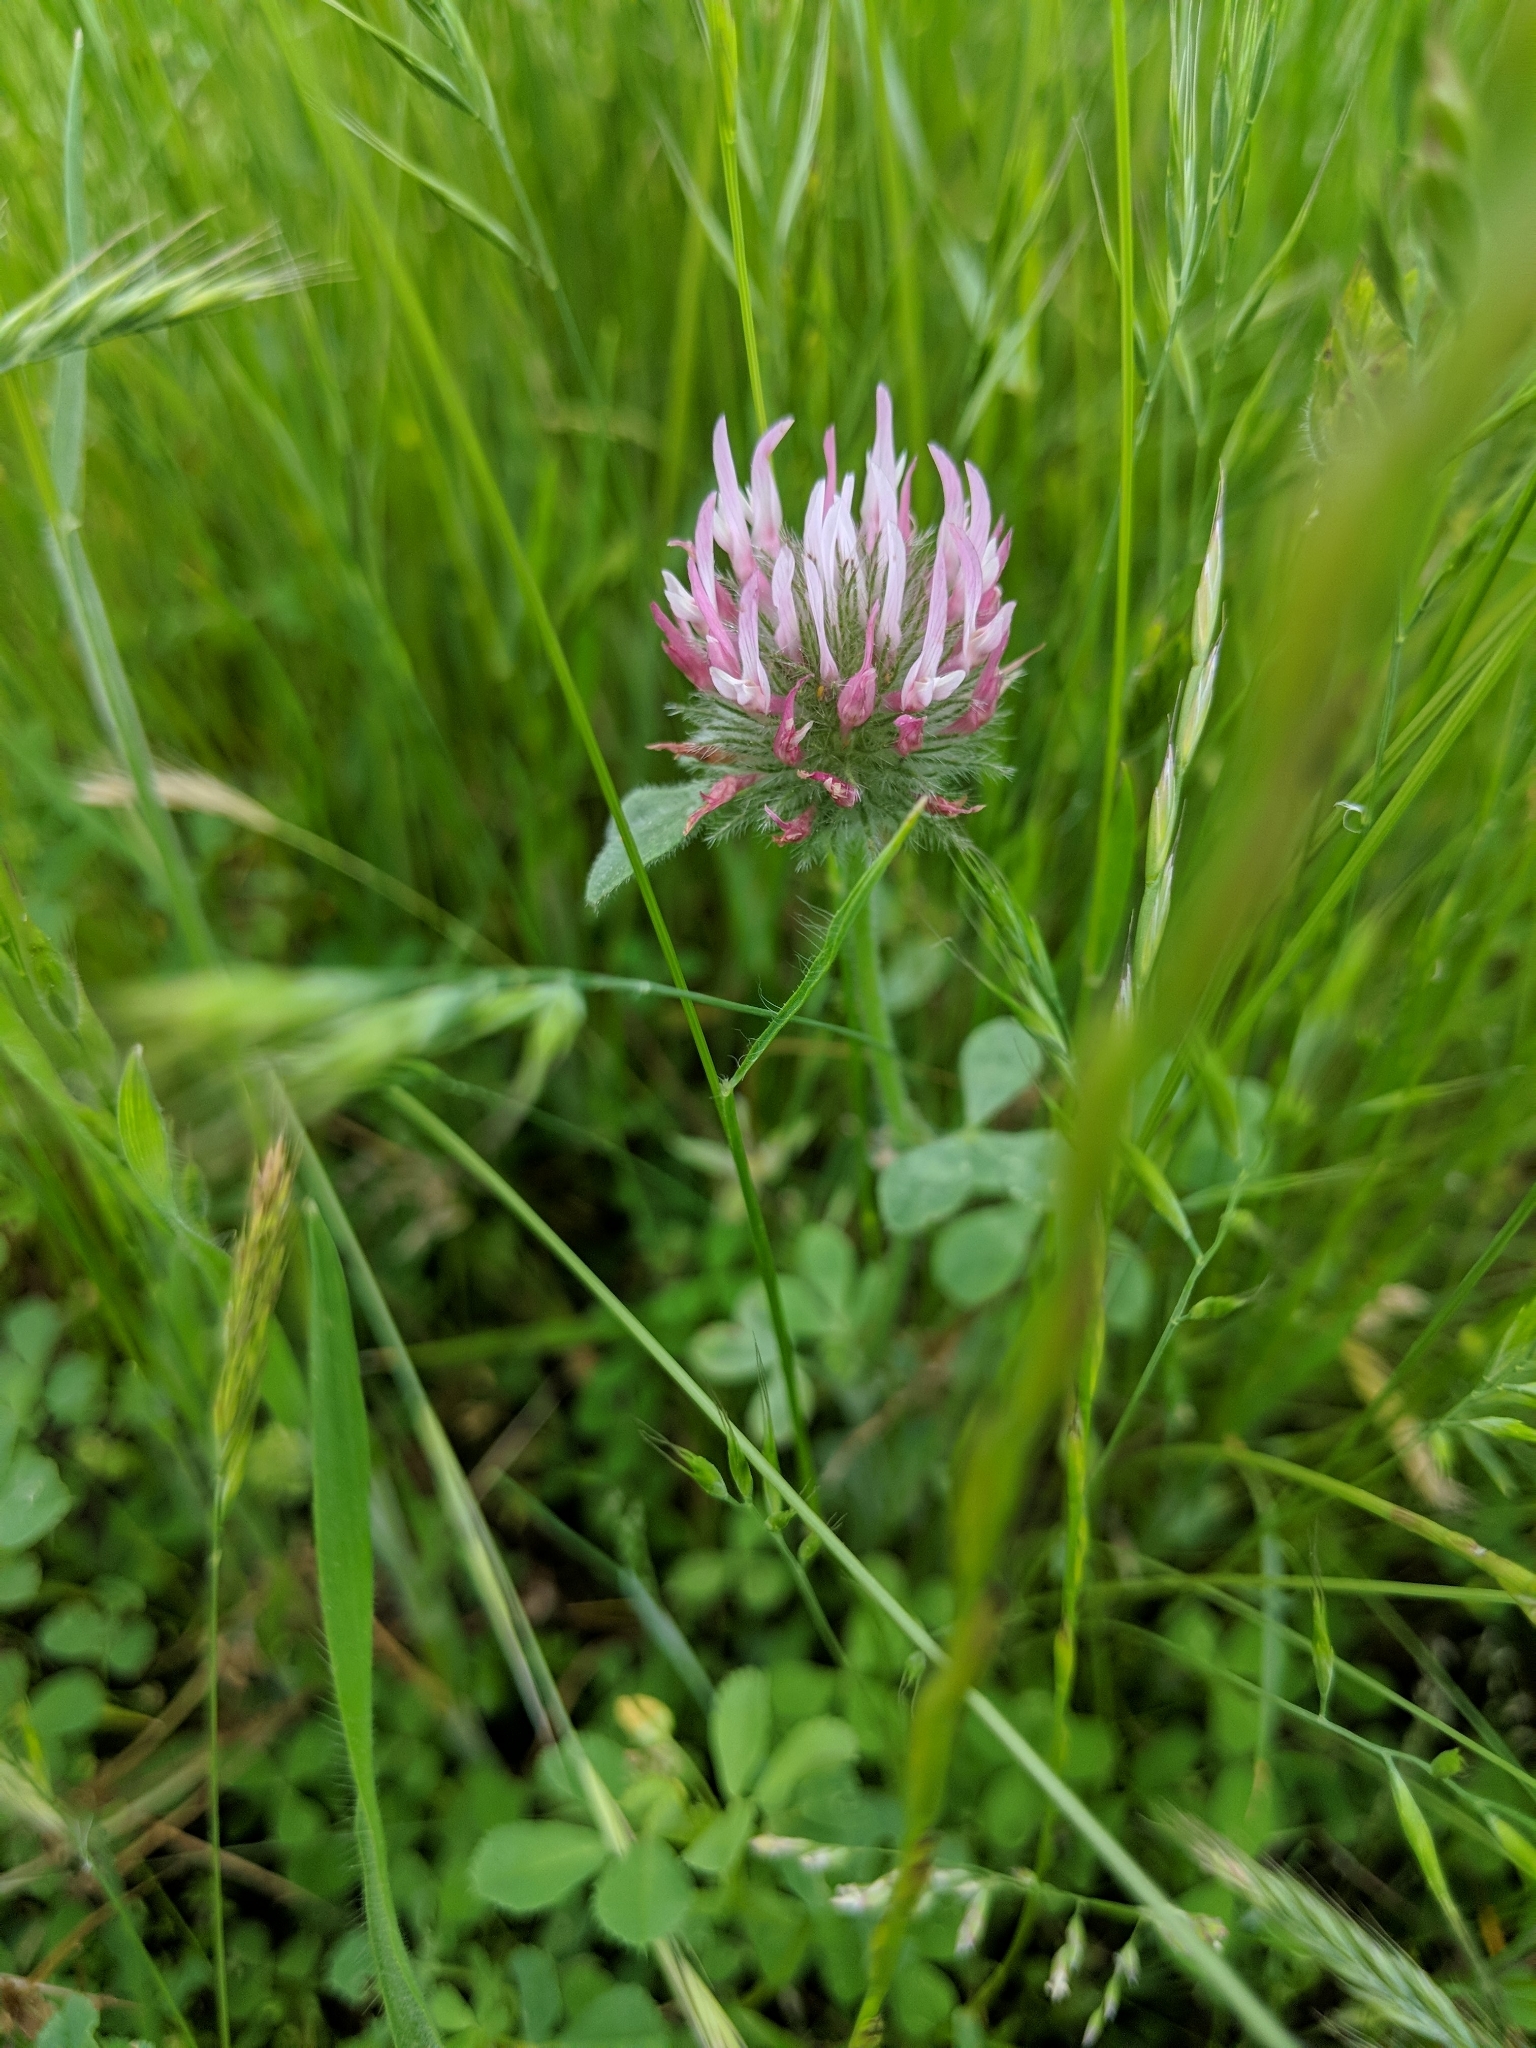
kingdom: Plantae
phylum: Tracheophyta
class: Magnoliopsida
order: Fabales
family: Fabaceae
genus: Trifolium
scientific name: Trifolium hirtum
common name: Rose clover
